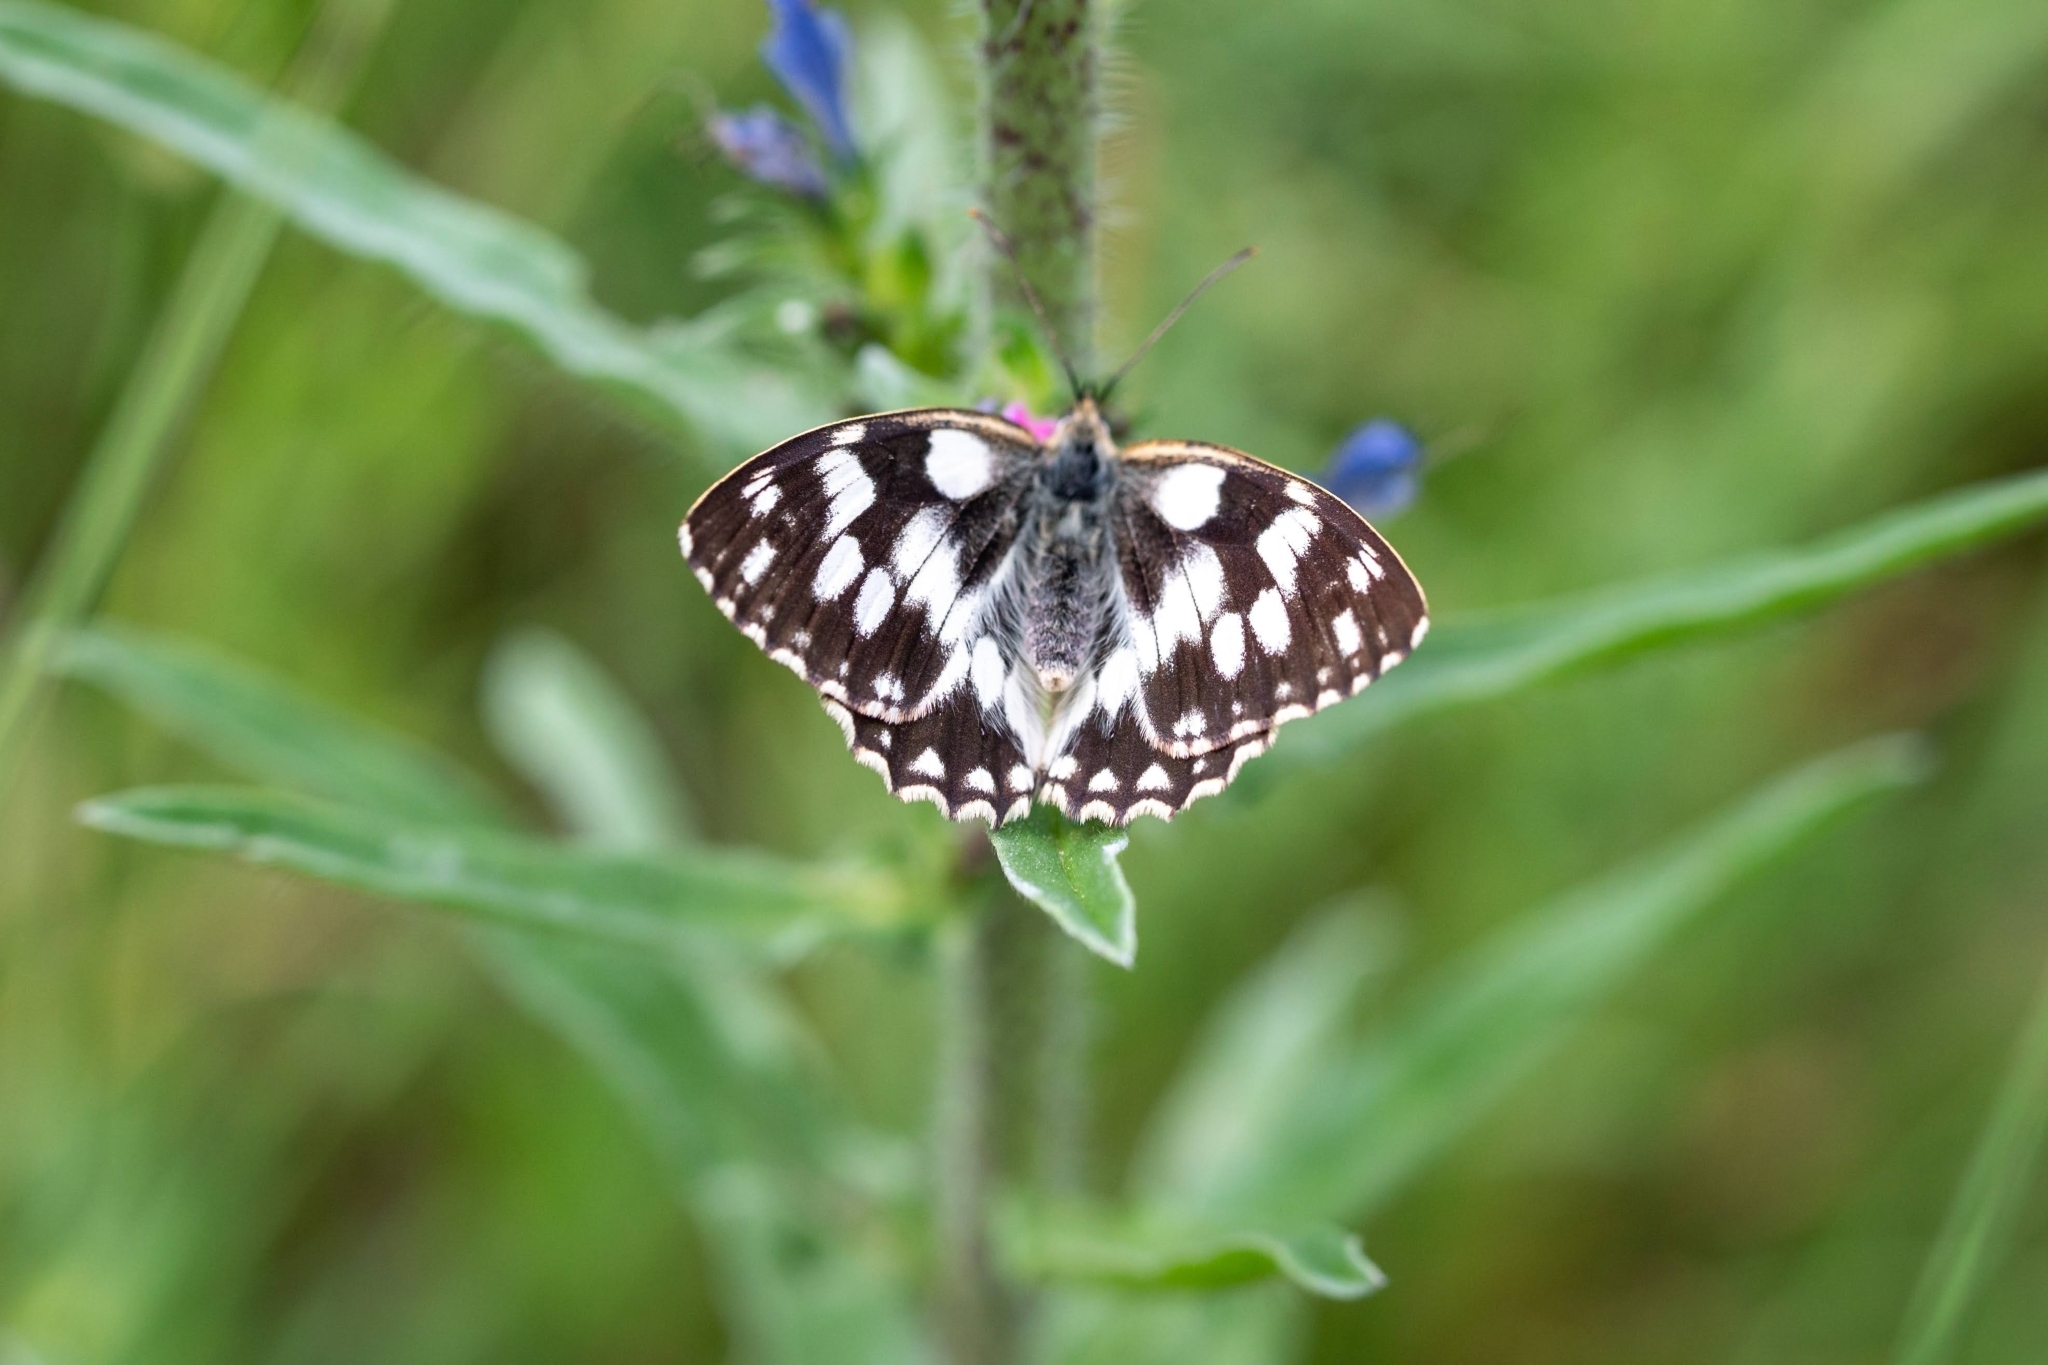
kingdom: Animalia
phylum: Arthropoda
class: Insecta
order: Lepidoptera
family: Nymphalidae
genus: Melanargia
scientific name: Melanargia galathea
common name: Marbled white
